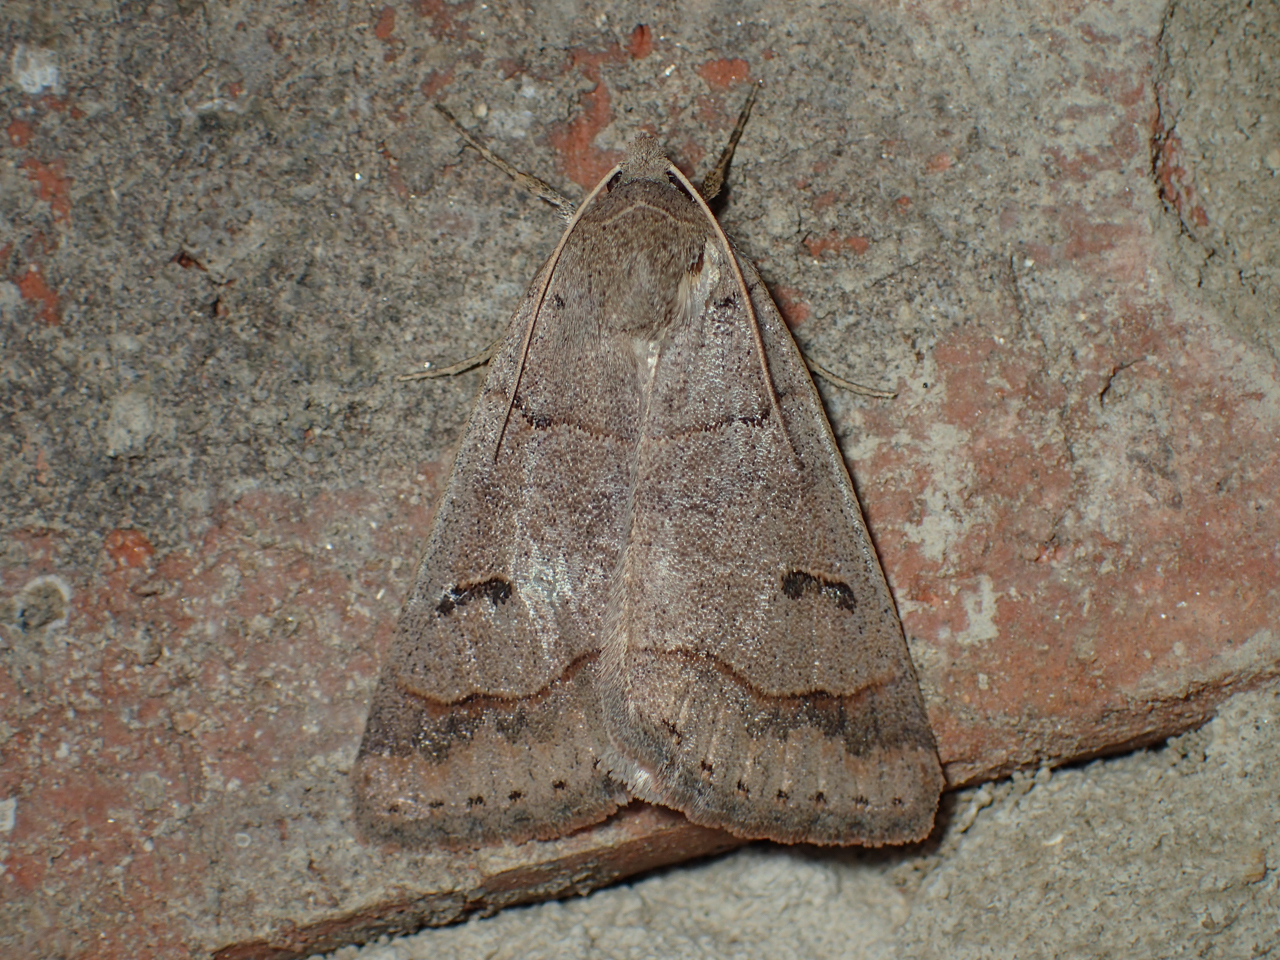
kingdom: Animalia
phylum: Arthropoda
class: Insecta
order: Lepidoptera
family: Erebidae
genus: Phoberia
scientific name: Phoberia atomaris
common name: Common oak moth
